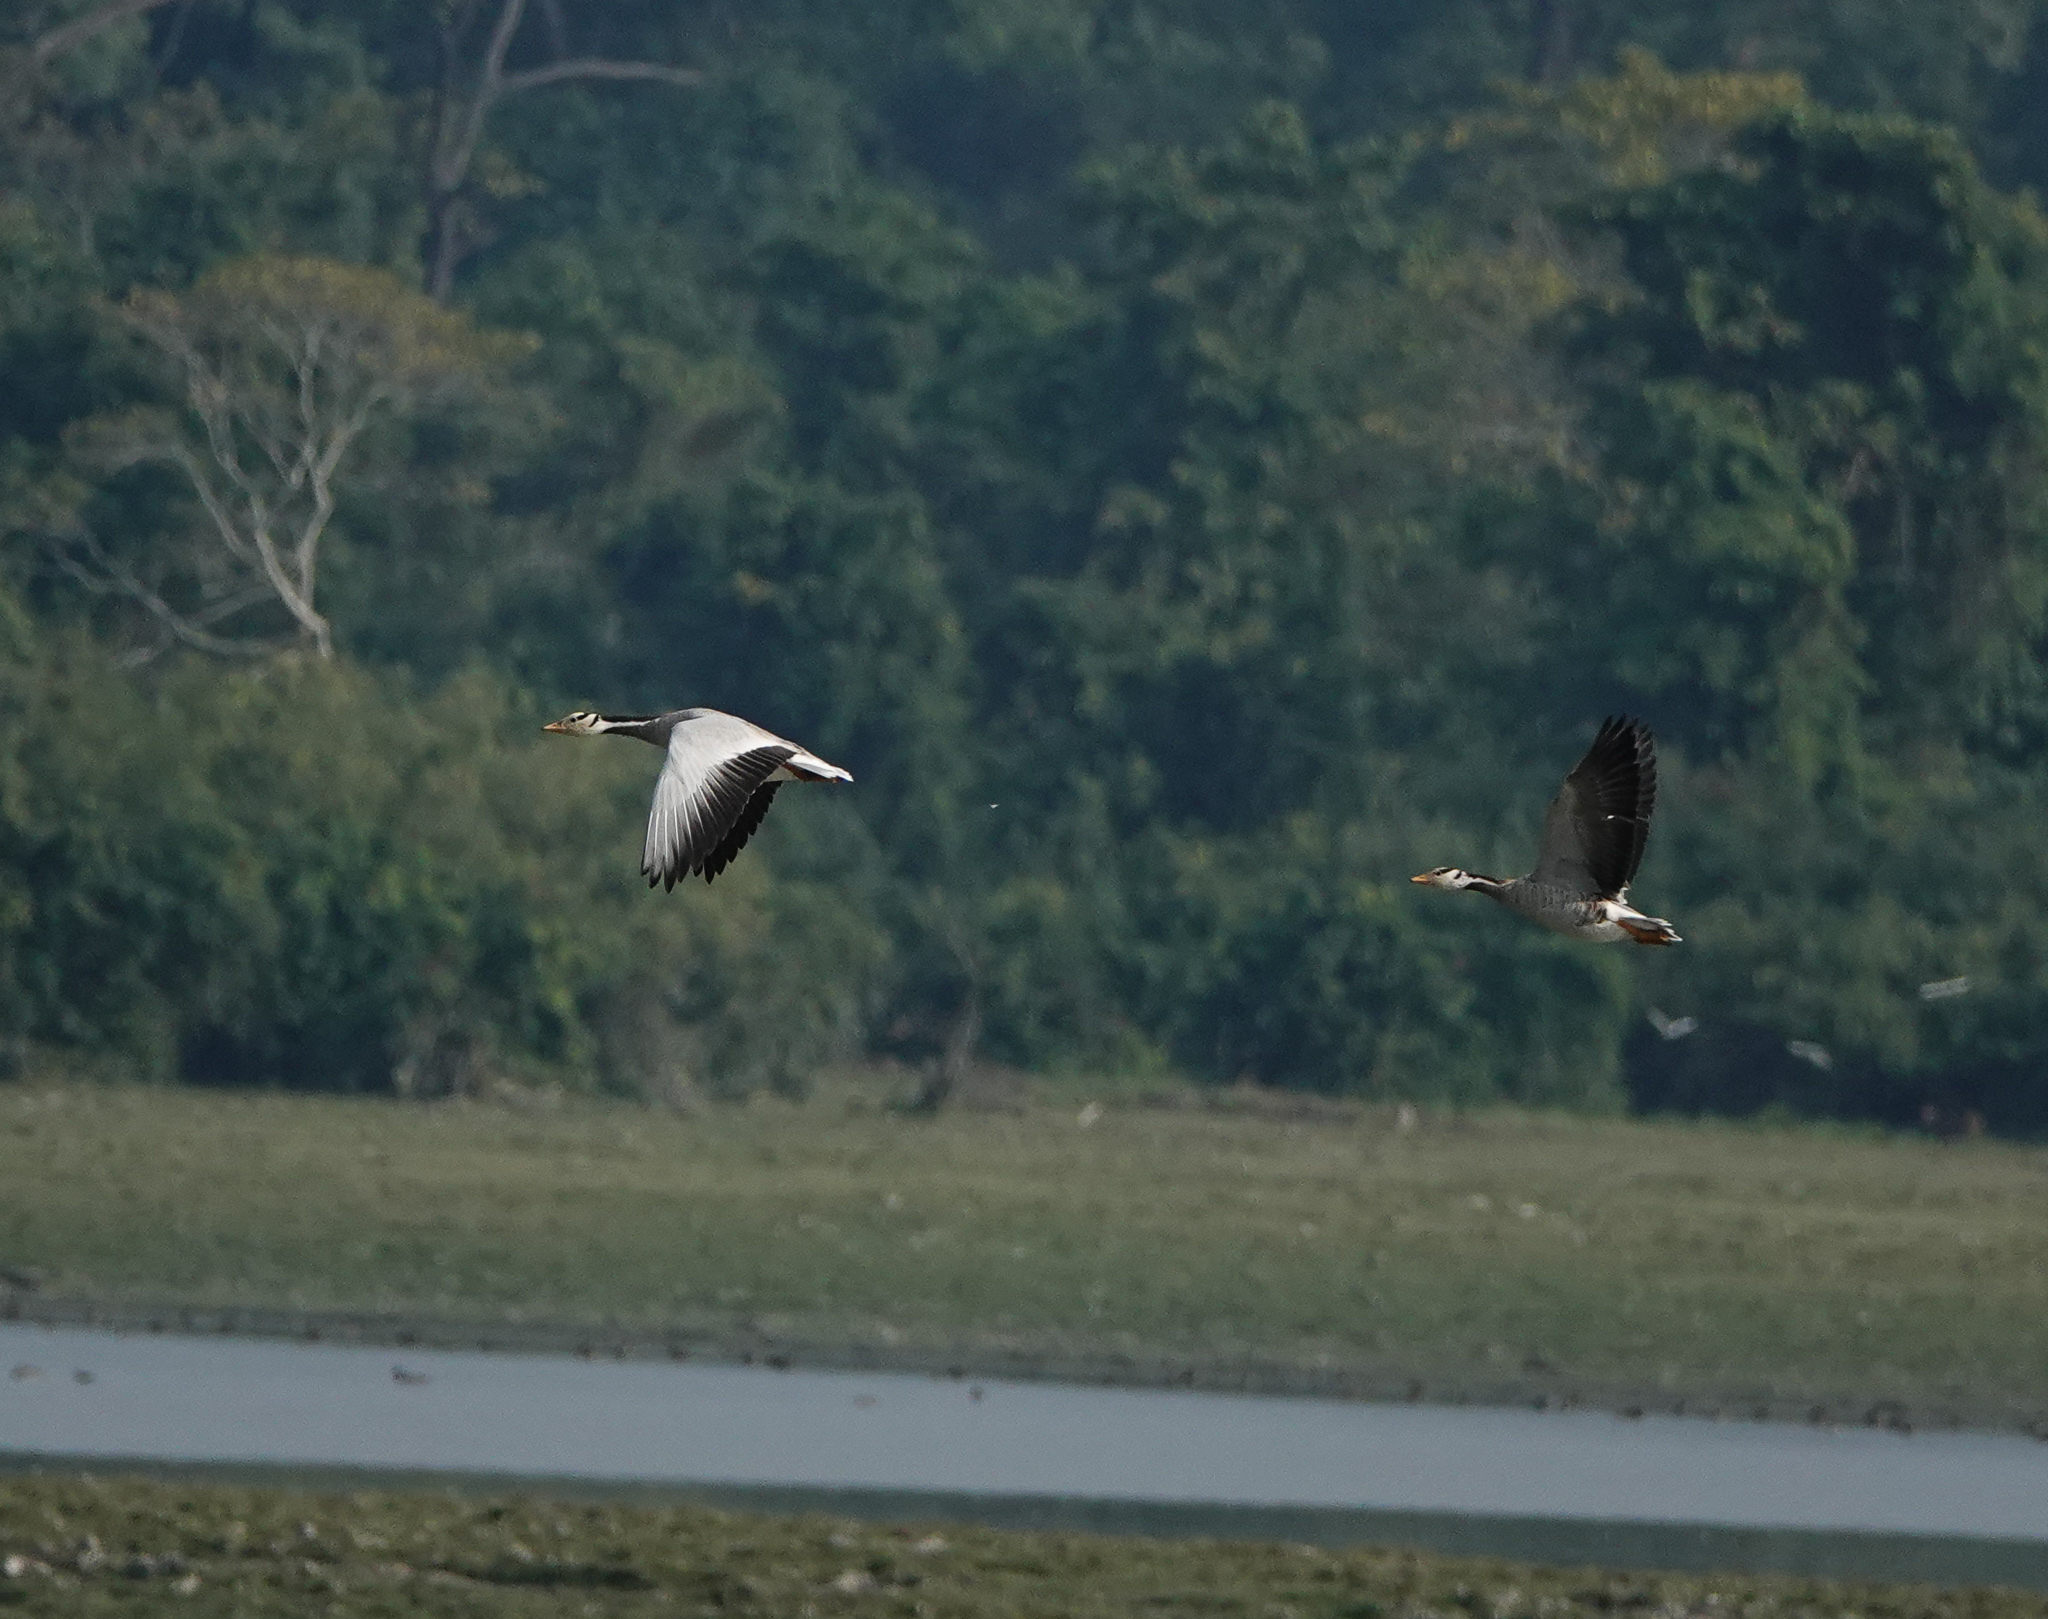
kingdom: Animalia
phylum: Chordata
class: Aves
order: Anseriformes
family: Anatidae
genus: Anser
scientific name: Anser indicus
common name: Bar-headed goose
